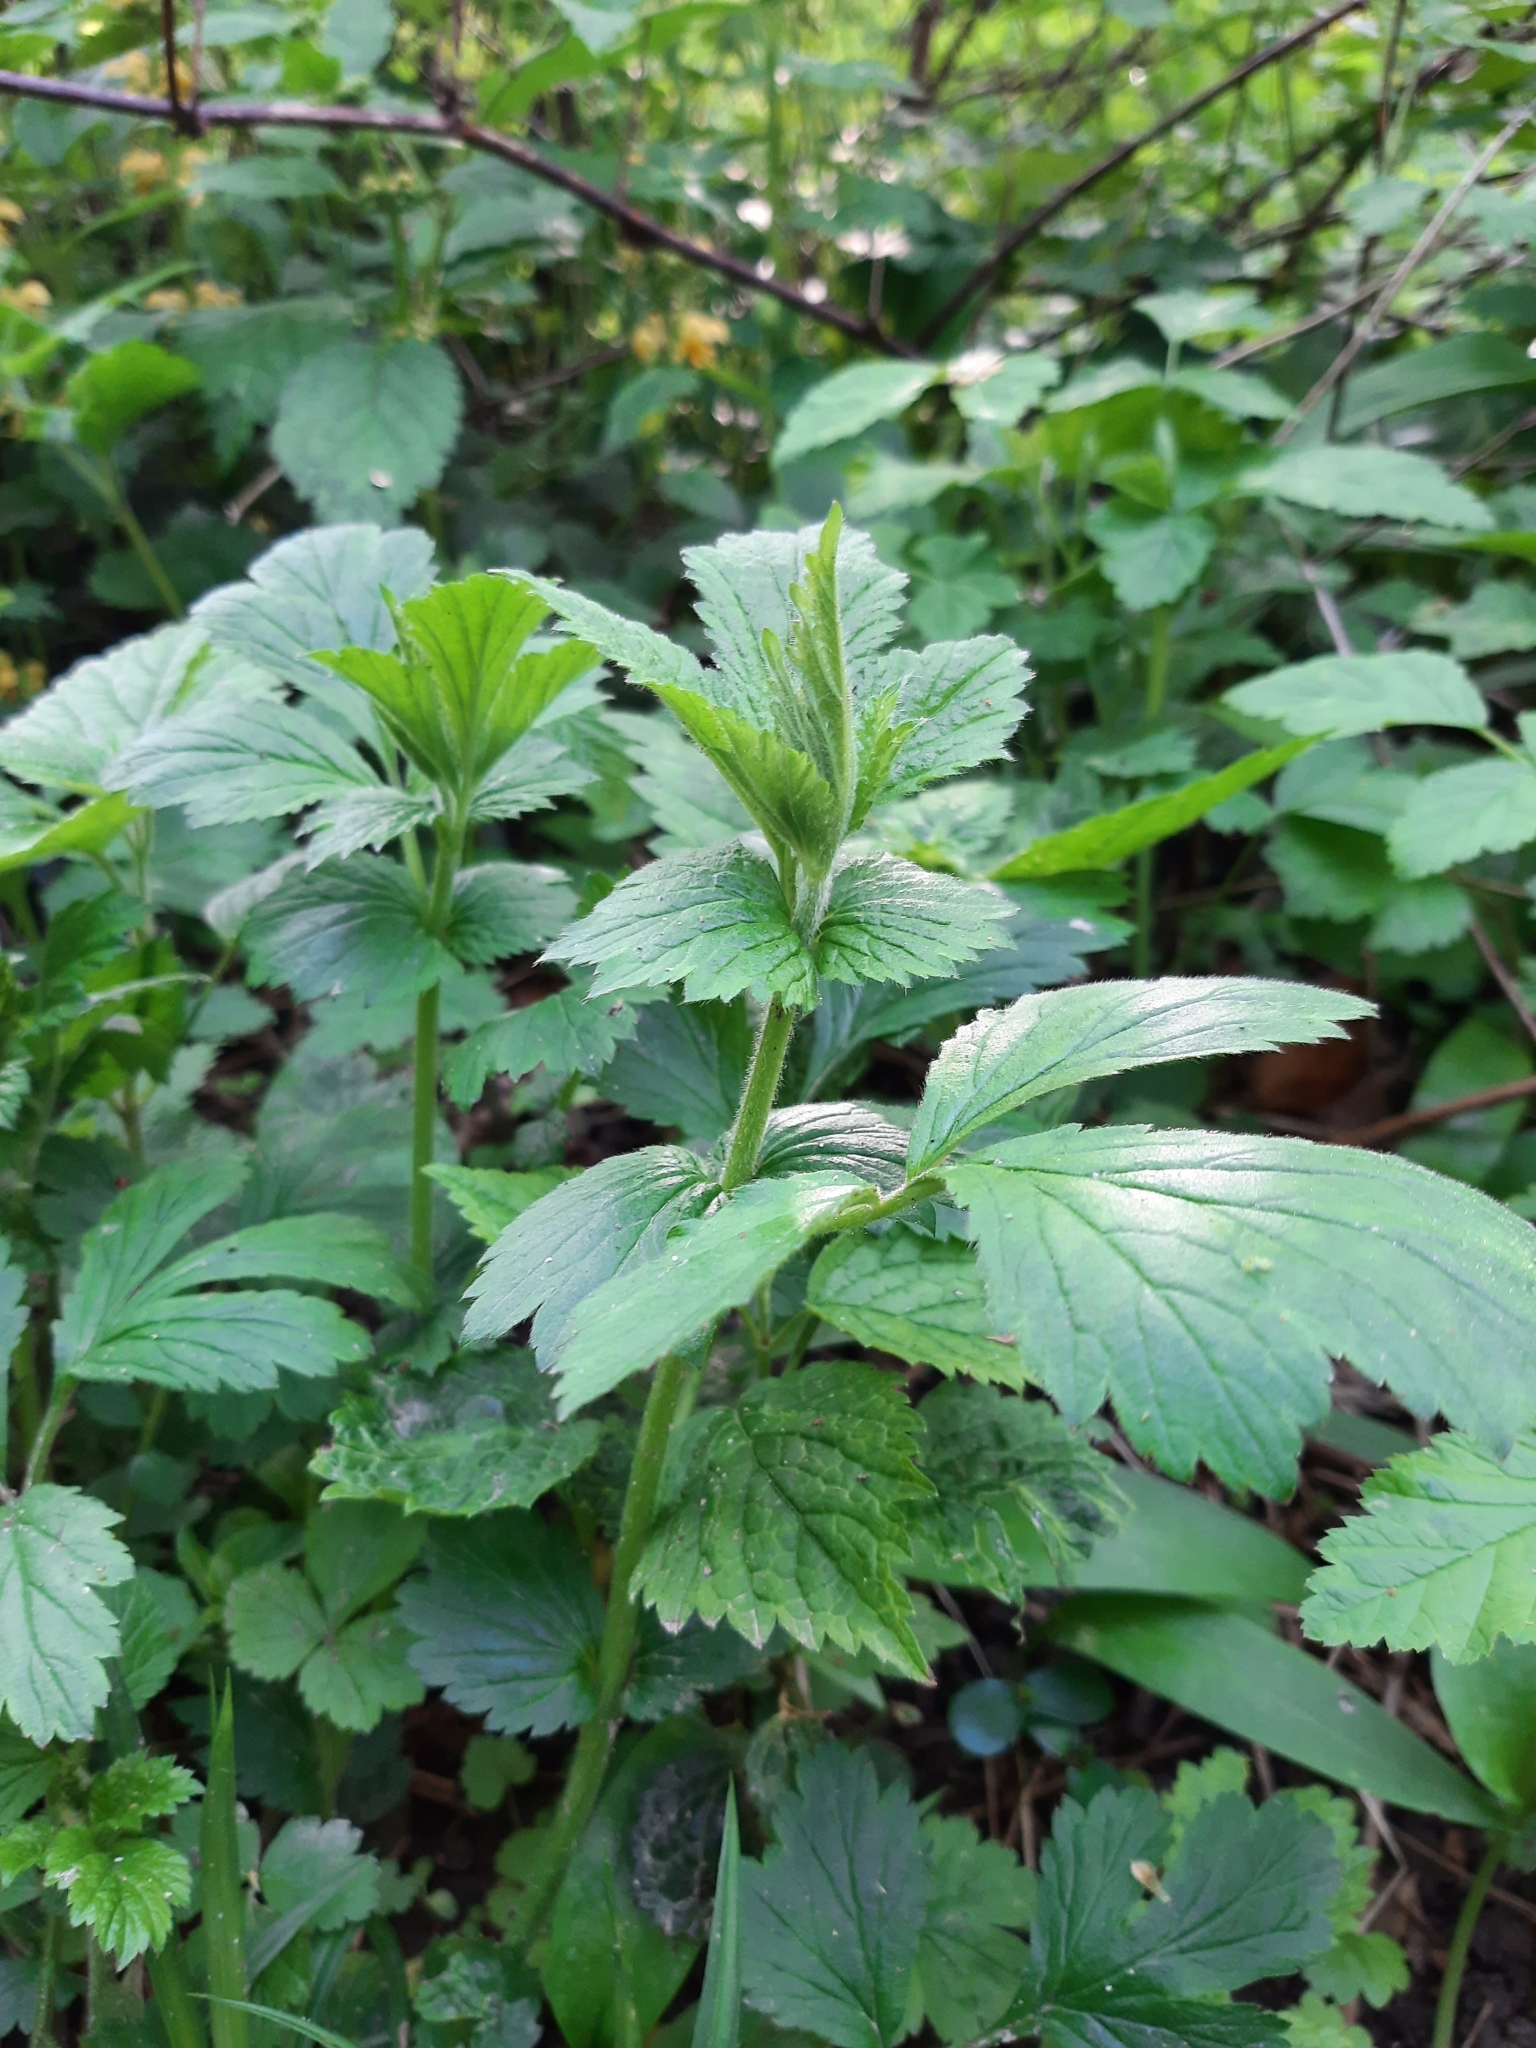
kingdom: Plantae
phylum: Tracheophyta
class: Magnoliopsida
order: Rosales
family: Rosaceae
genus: Geum
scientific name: Geum urbanum
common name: Wood avens
